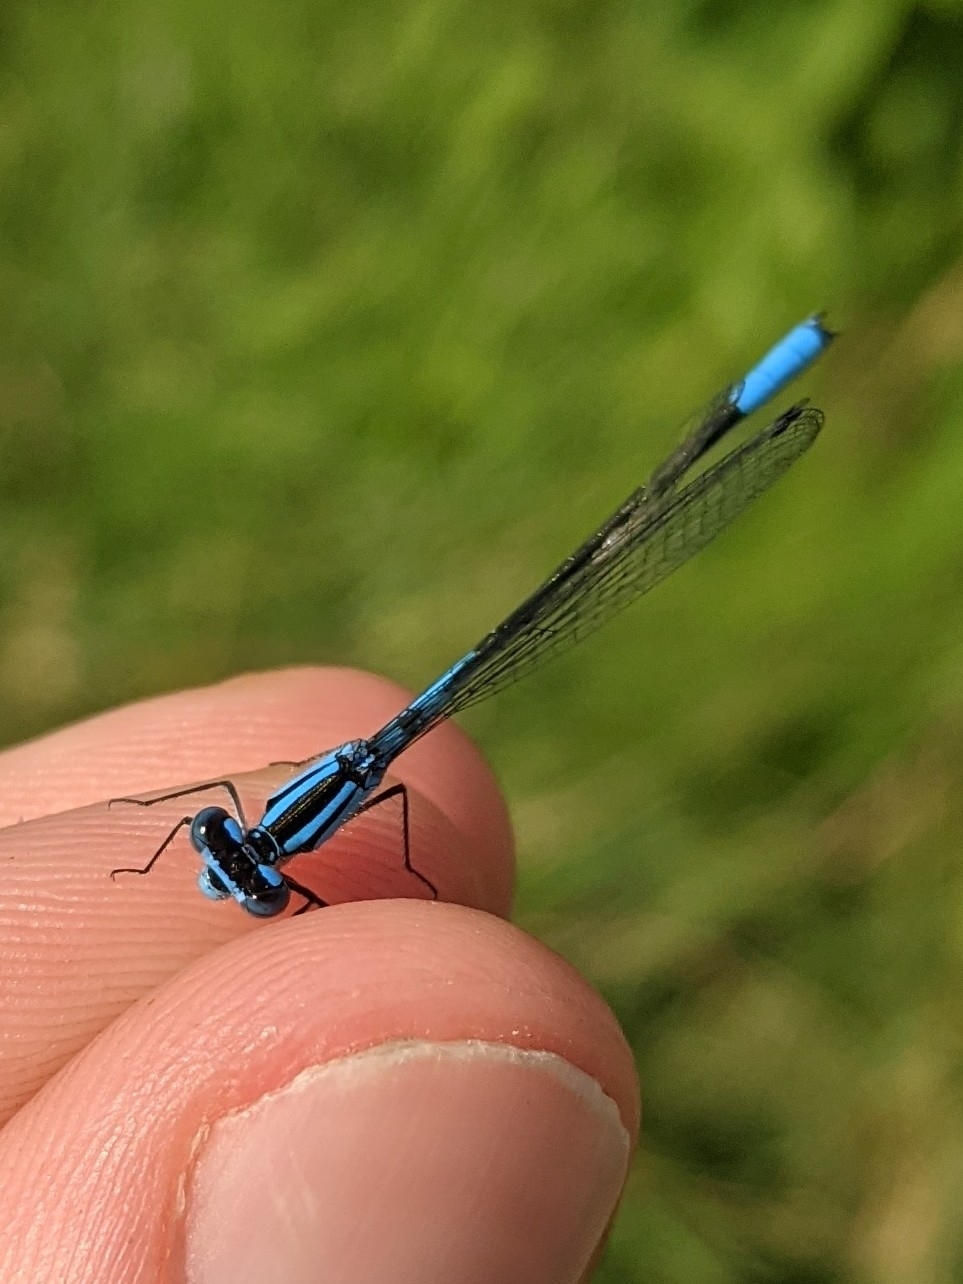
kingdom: Animalia
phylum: Arthropoda
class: Insecta
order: Odonata
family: Coenagrionidae
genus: Enallagma
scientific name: Enallagma aspersum
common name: Azure bluet
